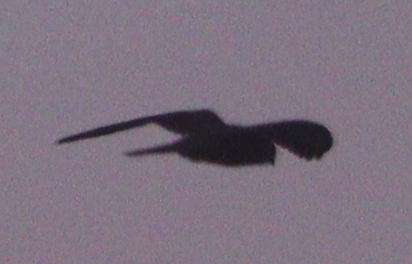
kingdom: Animalia
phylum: Chordata
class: Aves
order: Falconiformes
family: Falconidae
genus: Falco
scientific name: Falco tinnunculus
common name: Common kestrel
